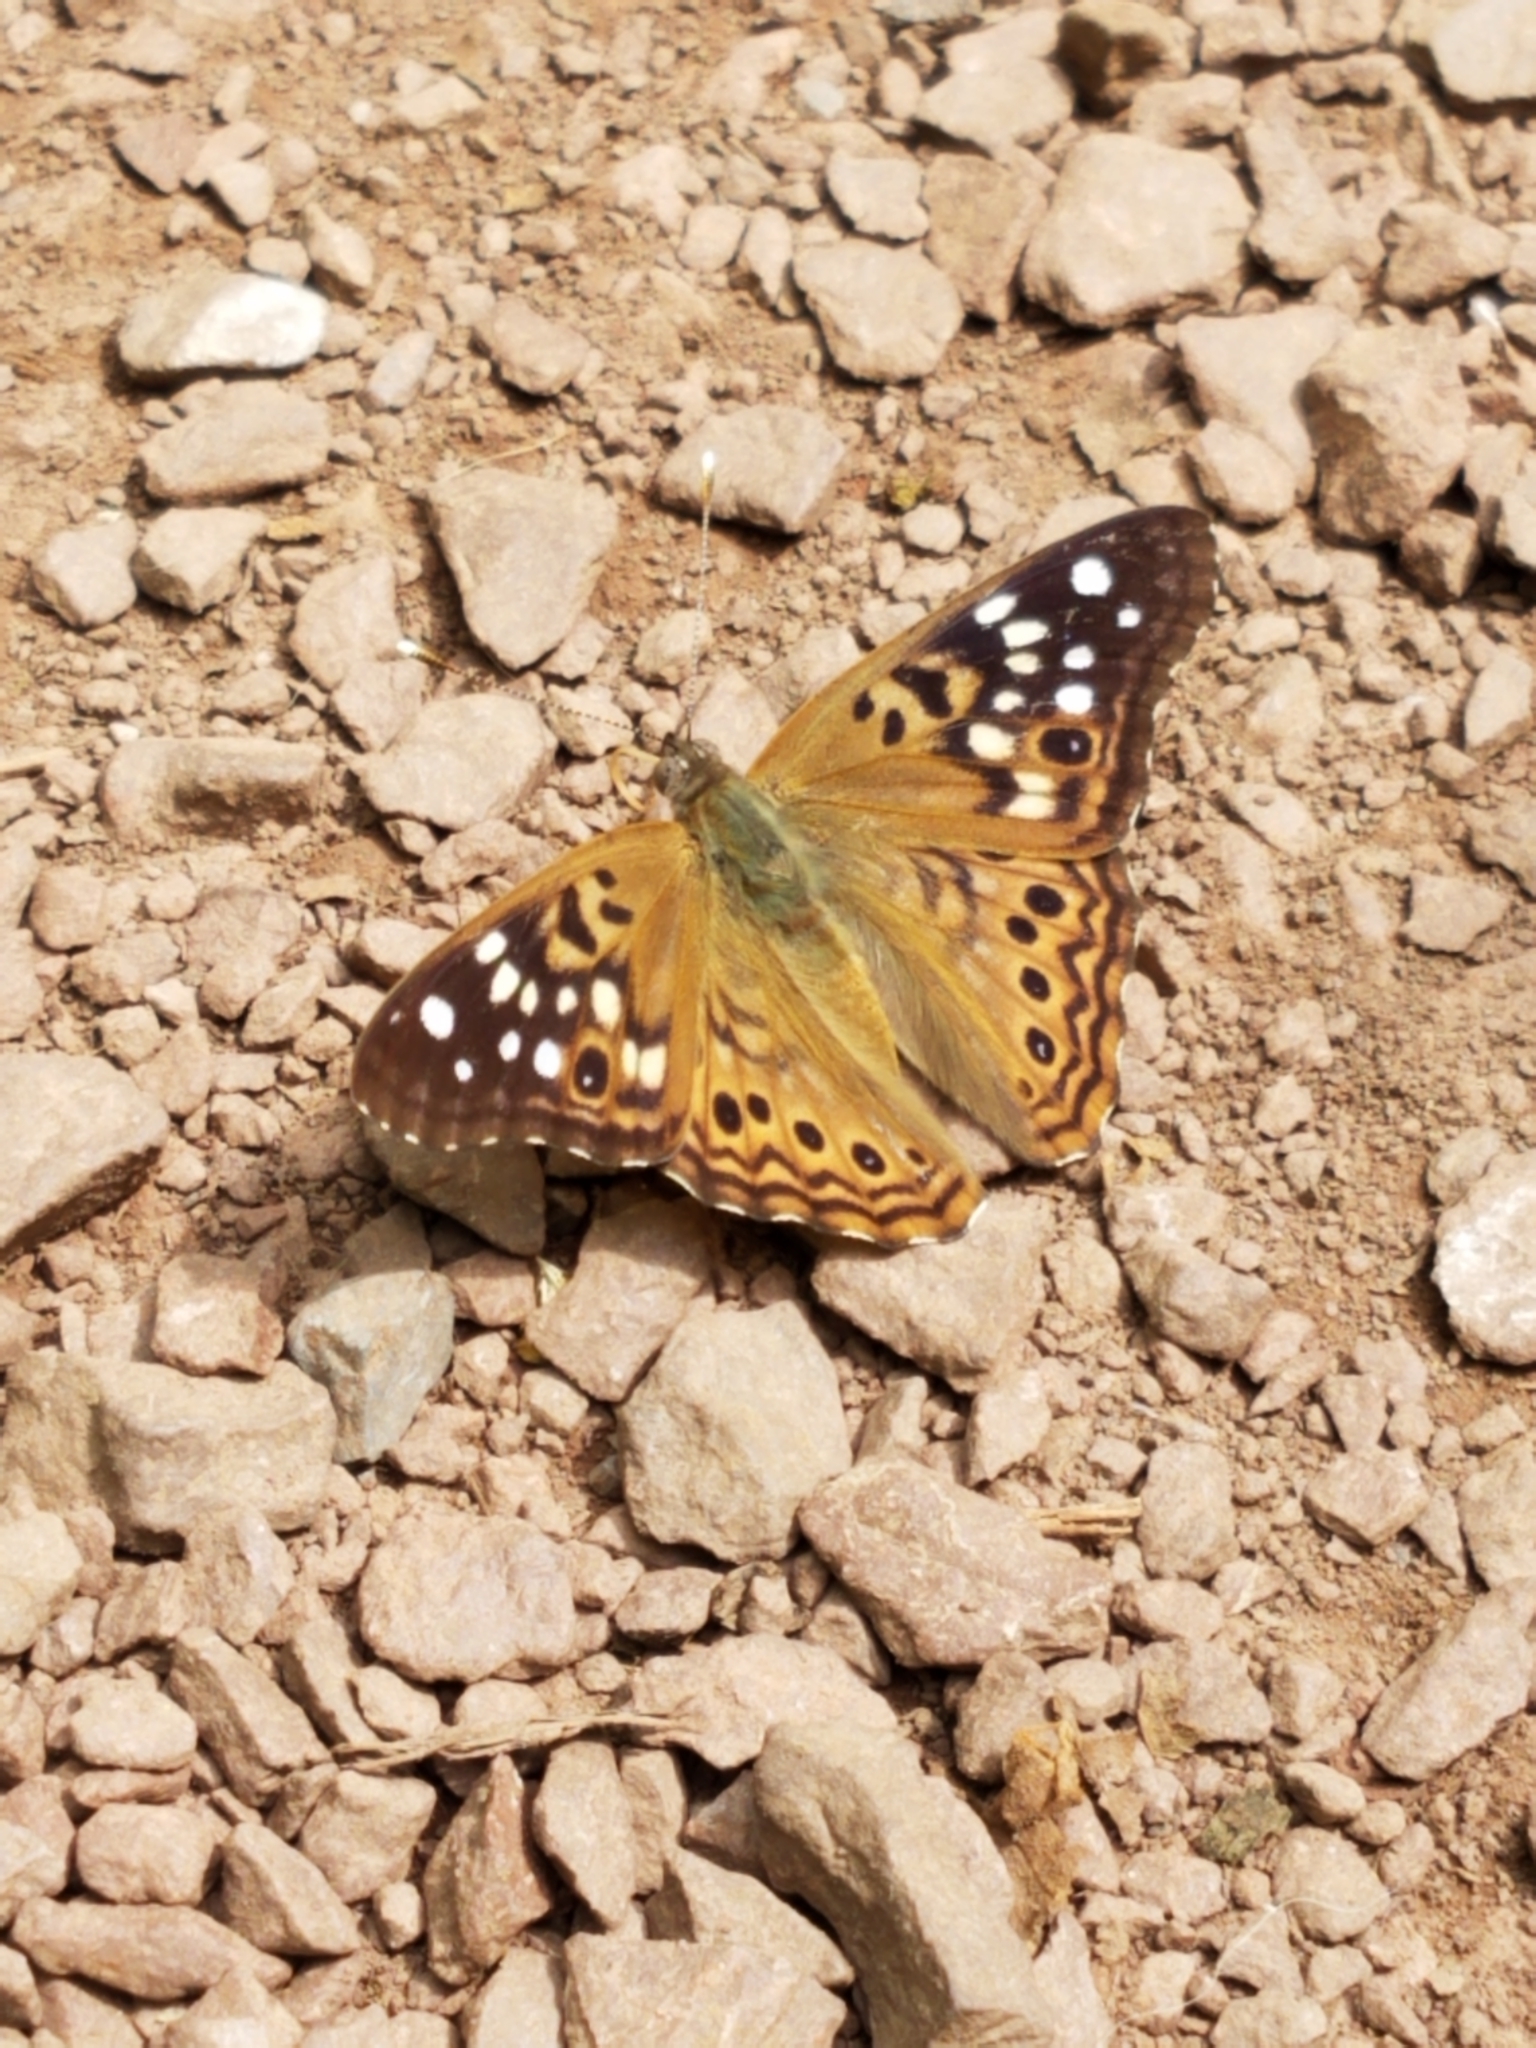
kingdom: Animalia
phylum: Arthropoda
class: Insecta
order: Lepidoptera
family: Nymphalidae
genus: Asterocampa
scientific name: Asterocampa celtis
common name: Hackberry emperor
